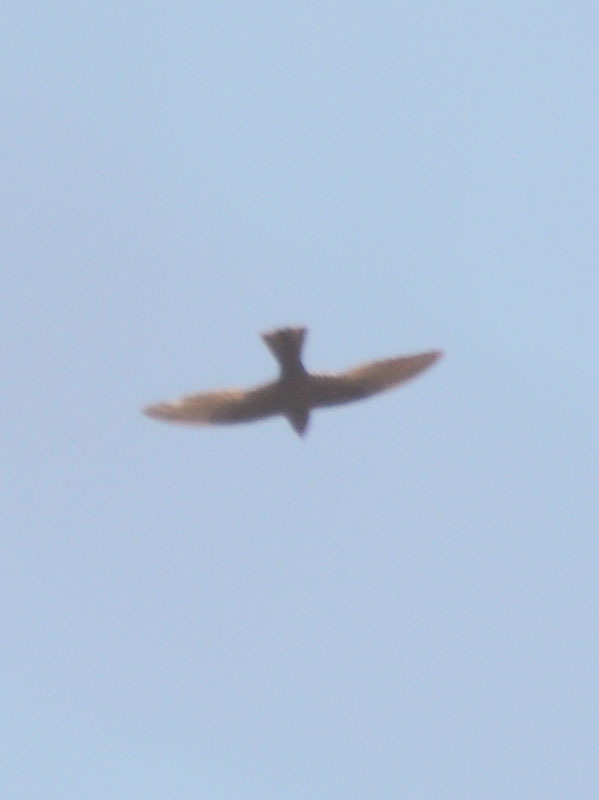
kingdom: Animalia
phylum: Chordata
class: Aves
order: Caprimulgiformes
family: Caprimulgidae
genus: Chordeiles
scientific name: Chordeiles acutipennis
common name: Lesser nighthawk
